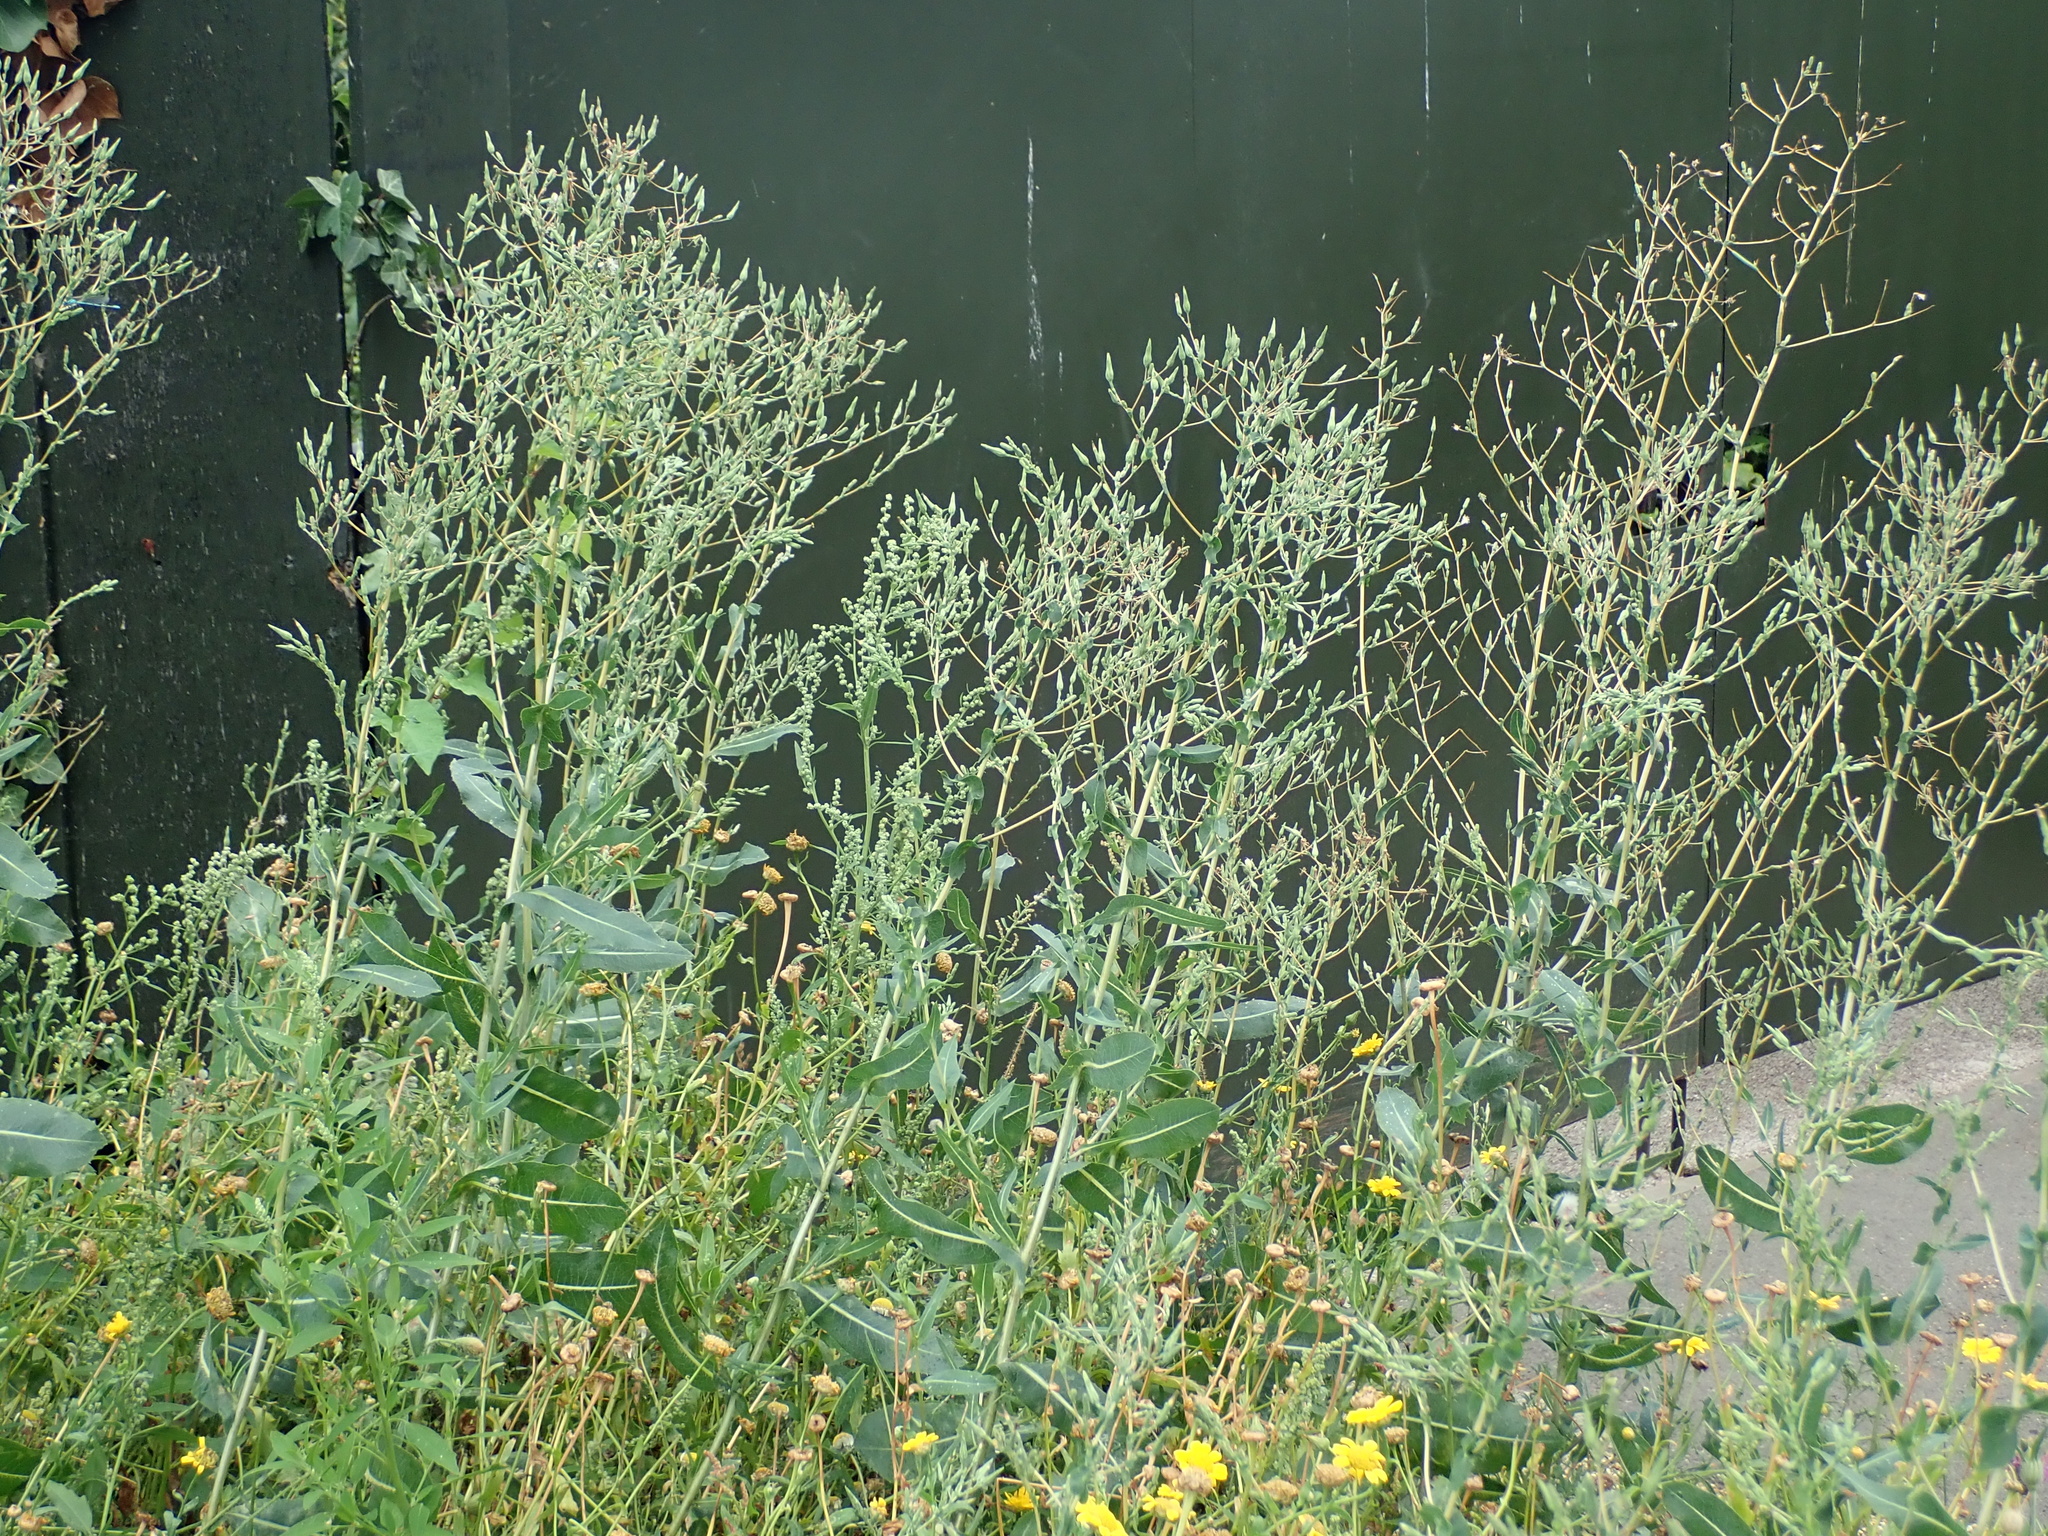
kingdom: Plantae
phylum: Tracheophyta
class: Magnoliopsida
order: Asterales
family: Asteraceae
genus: Lactuca
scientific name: Lactuca serriola
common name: Prickly lettuce
